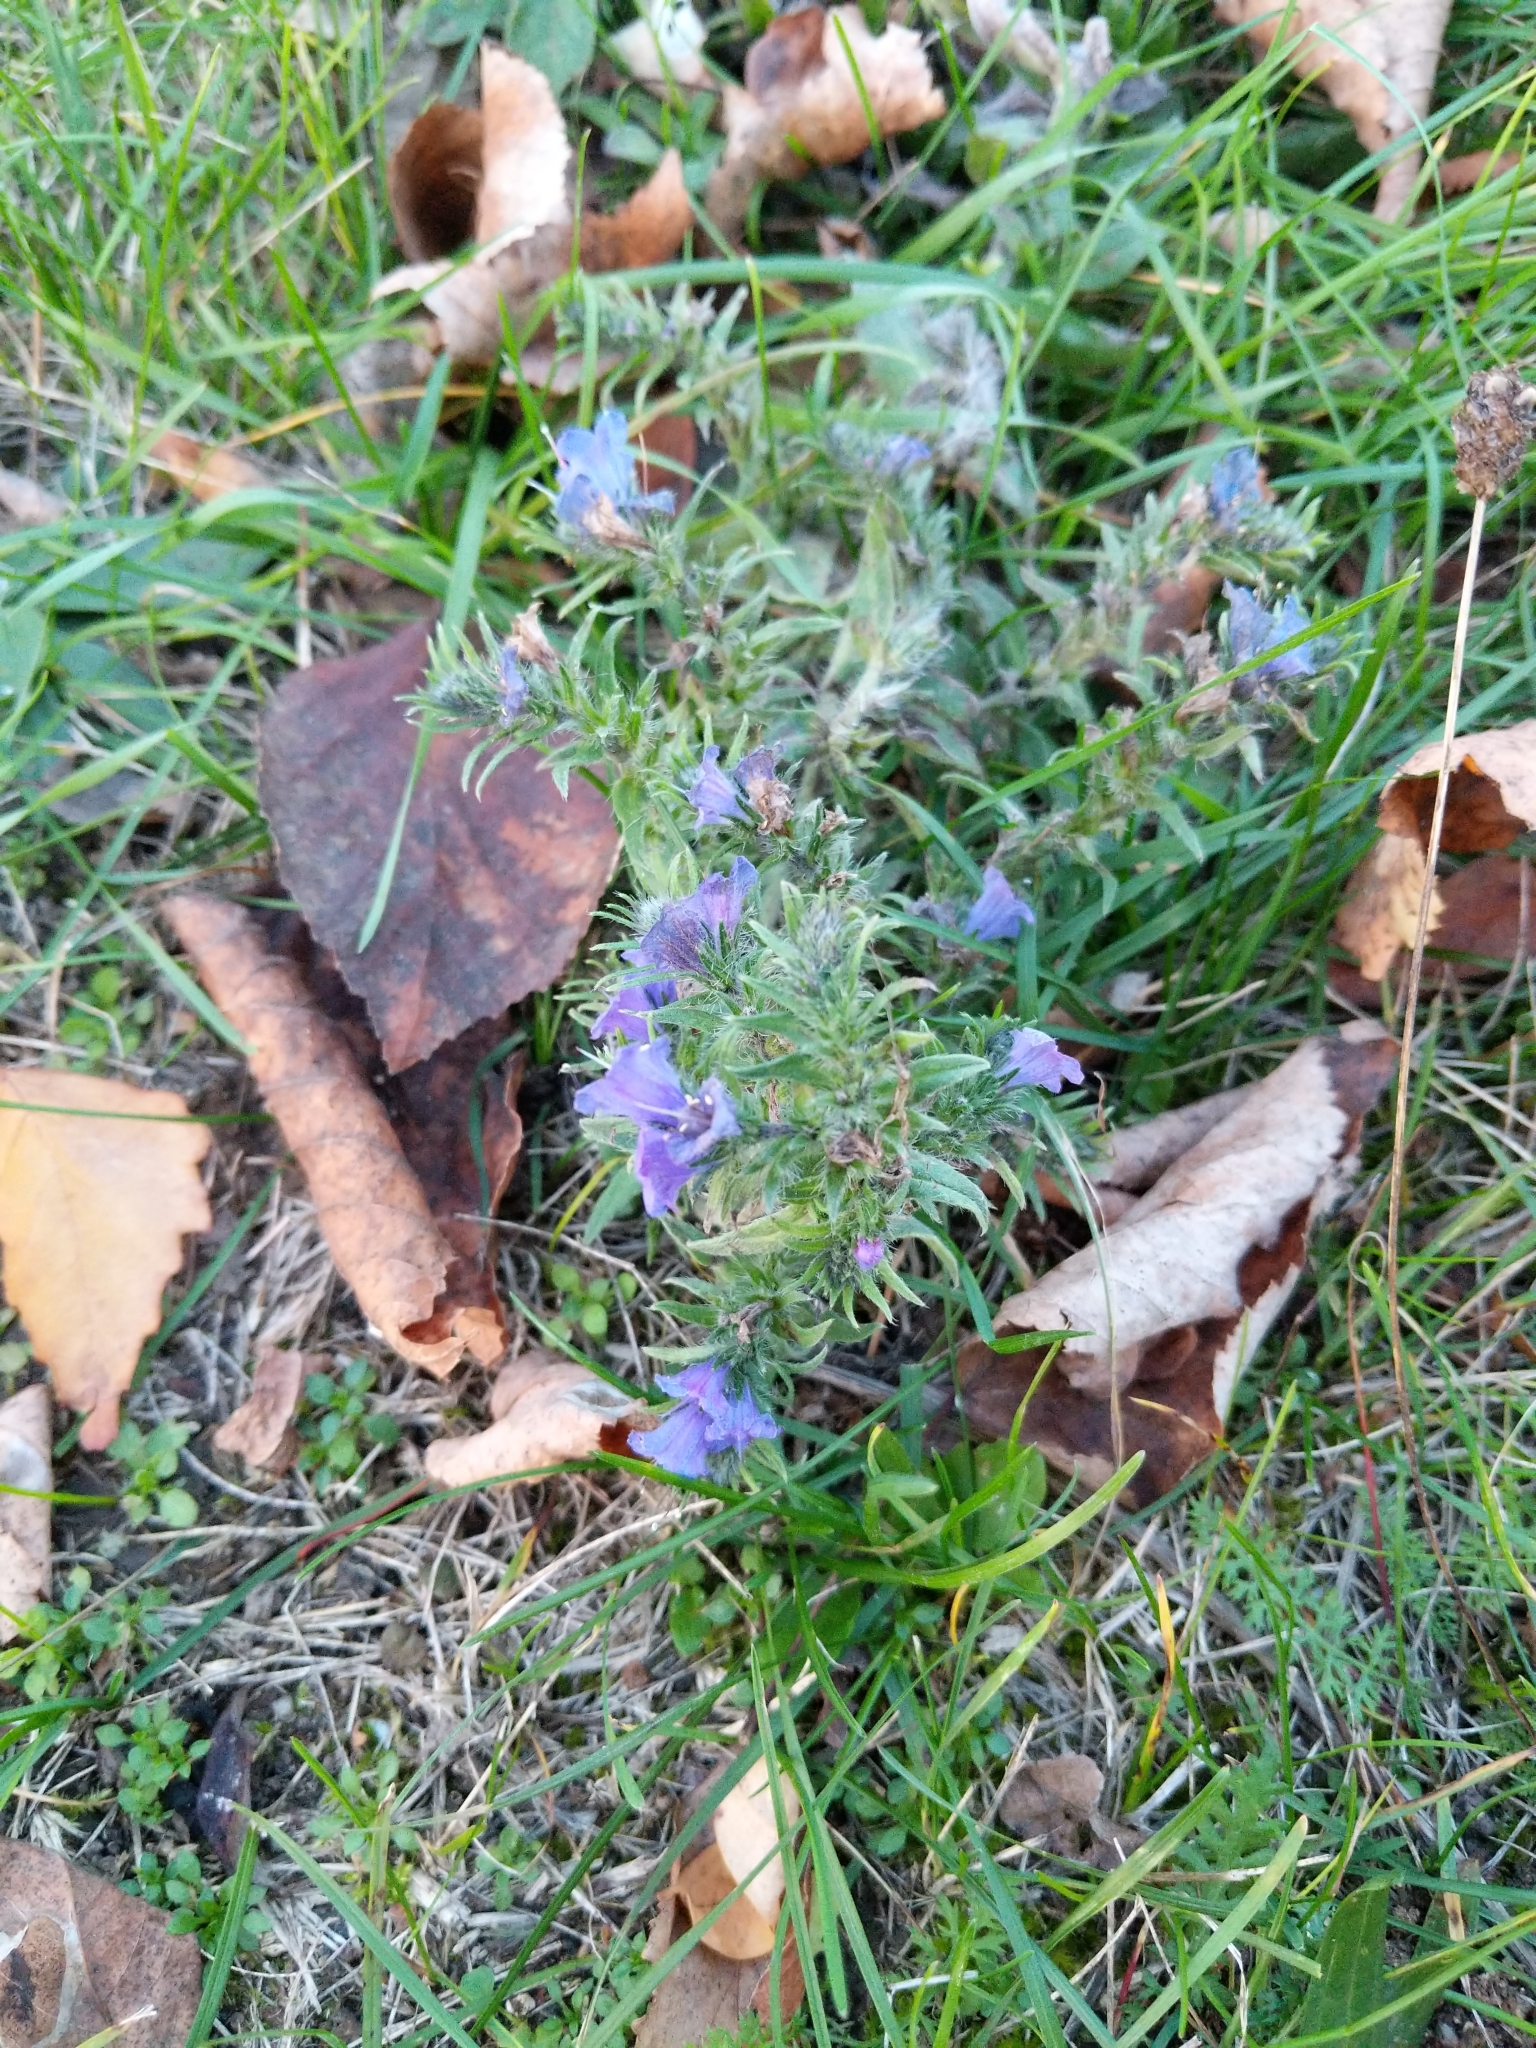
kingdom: Plantae
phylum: Tracheophyta
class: Magnoliopsida
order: Boraginales
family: Boraginaceae
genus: Echium
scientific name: Echium vulgare
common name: Common viper's bugloss
